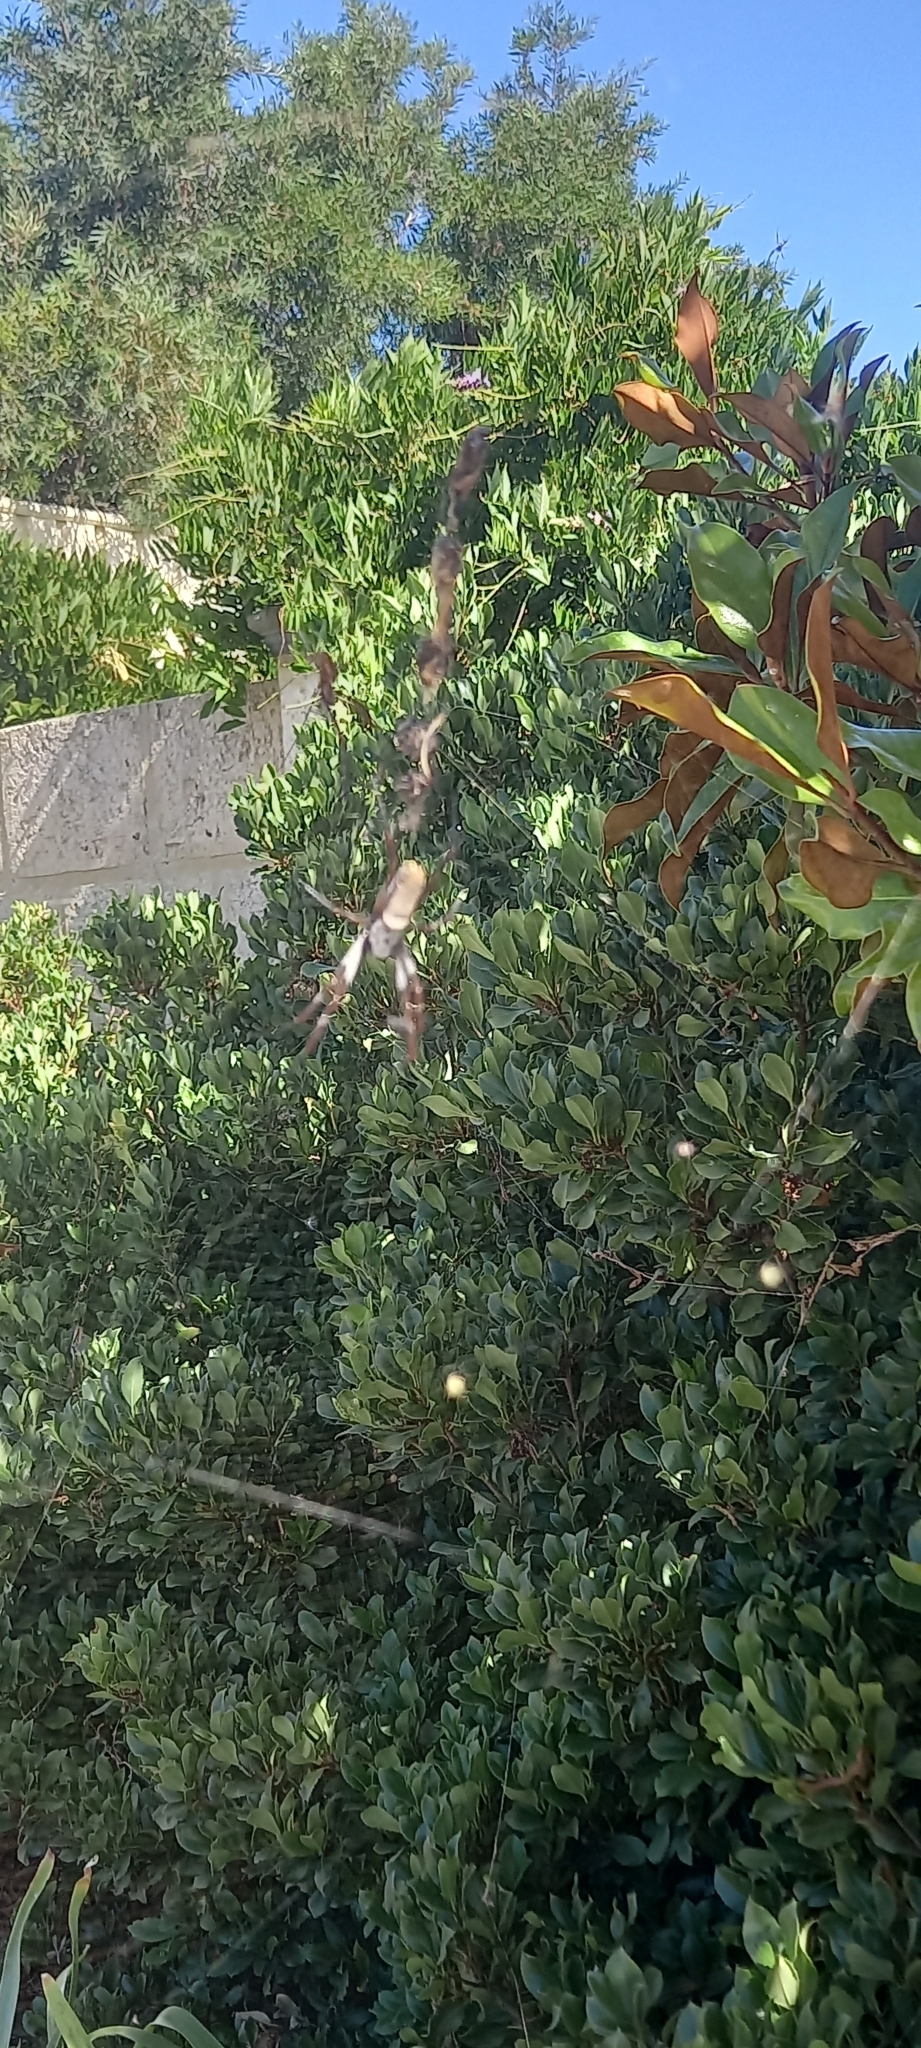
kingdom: Animalia
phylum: Arthropoda
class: Arachnida
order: Araneae
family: Araneidae
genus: Trichonephila
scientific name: Trichonephila edulis
